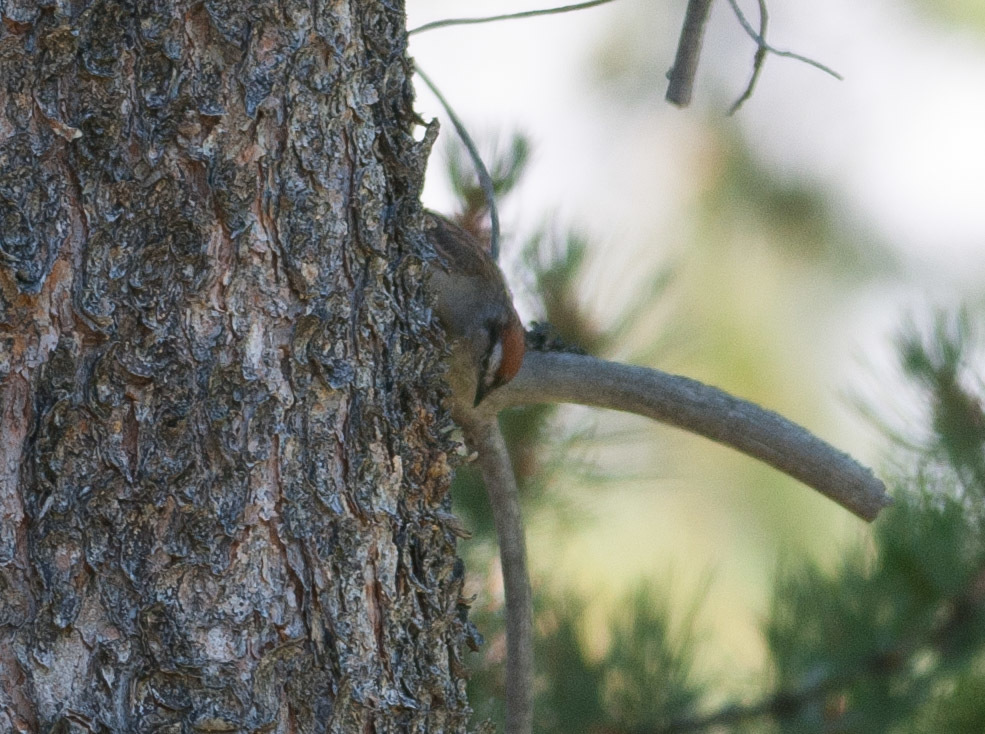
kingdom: Animalia
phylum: Chordata
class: Aves
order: Passeriformes
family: Passerellidae
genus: Spizella
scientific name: Spizella passerina
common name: Chipping sparrow
